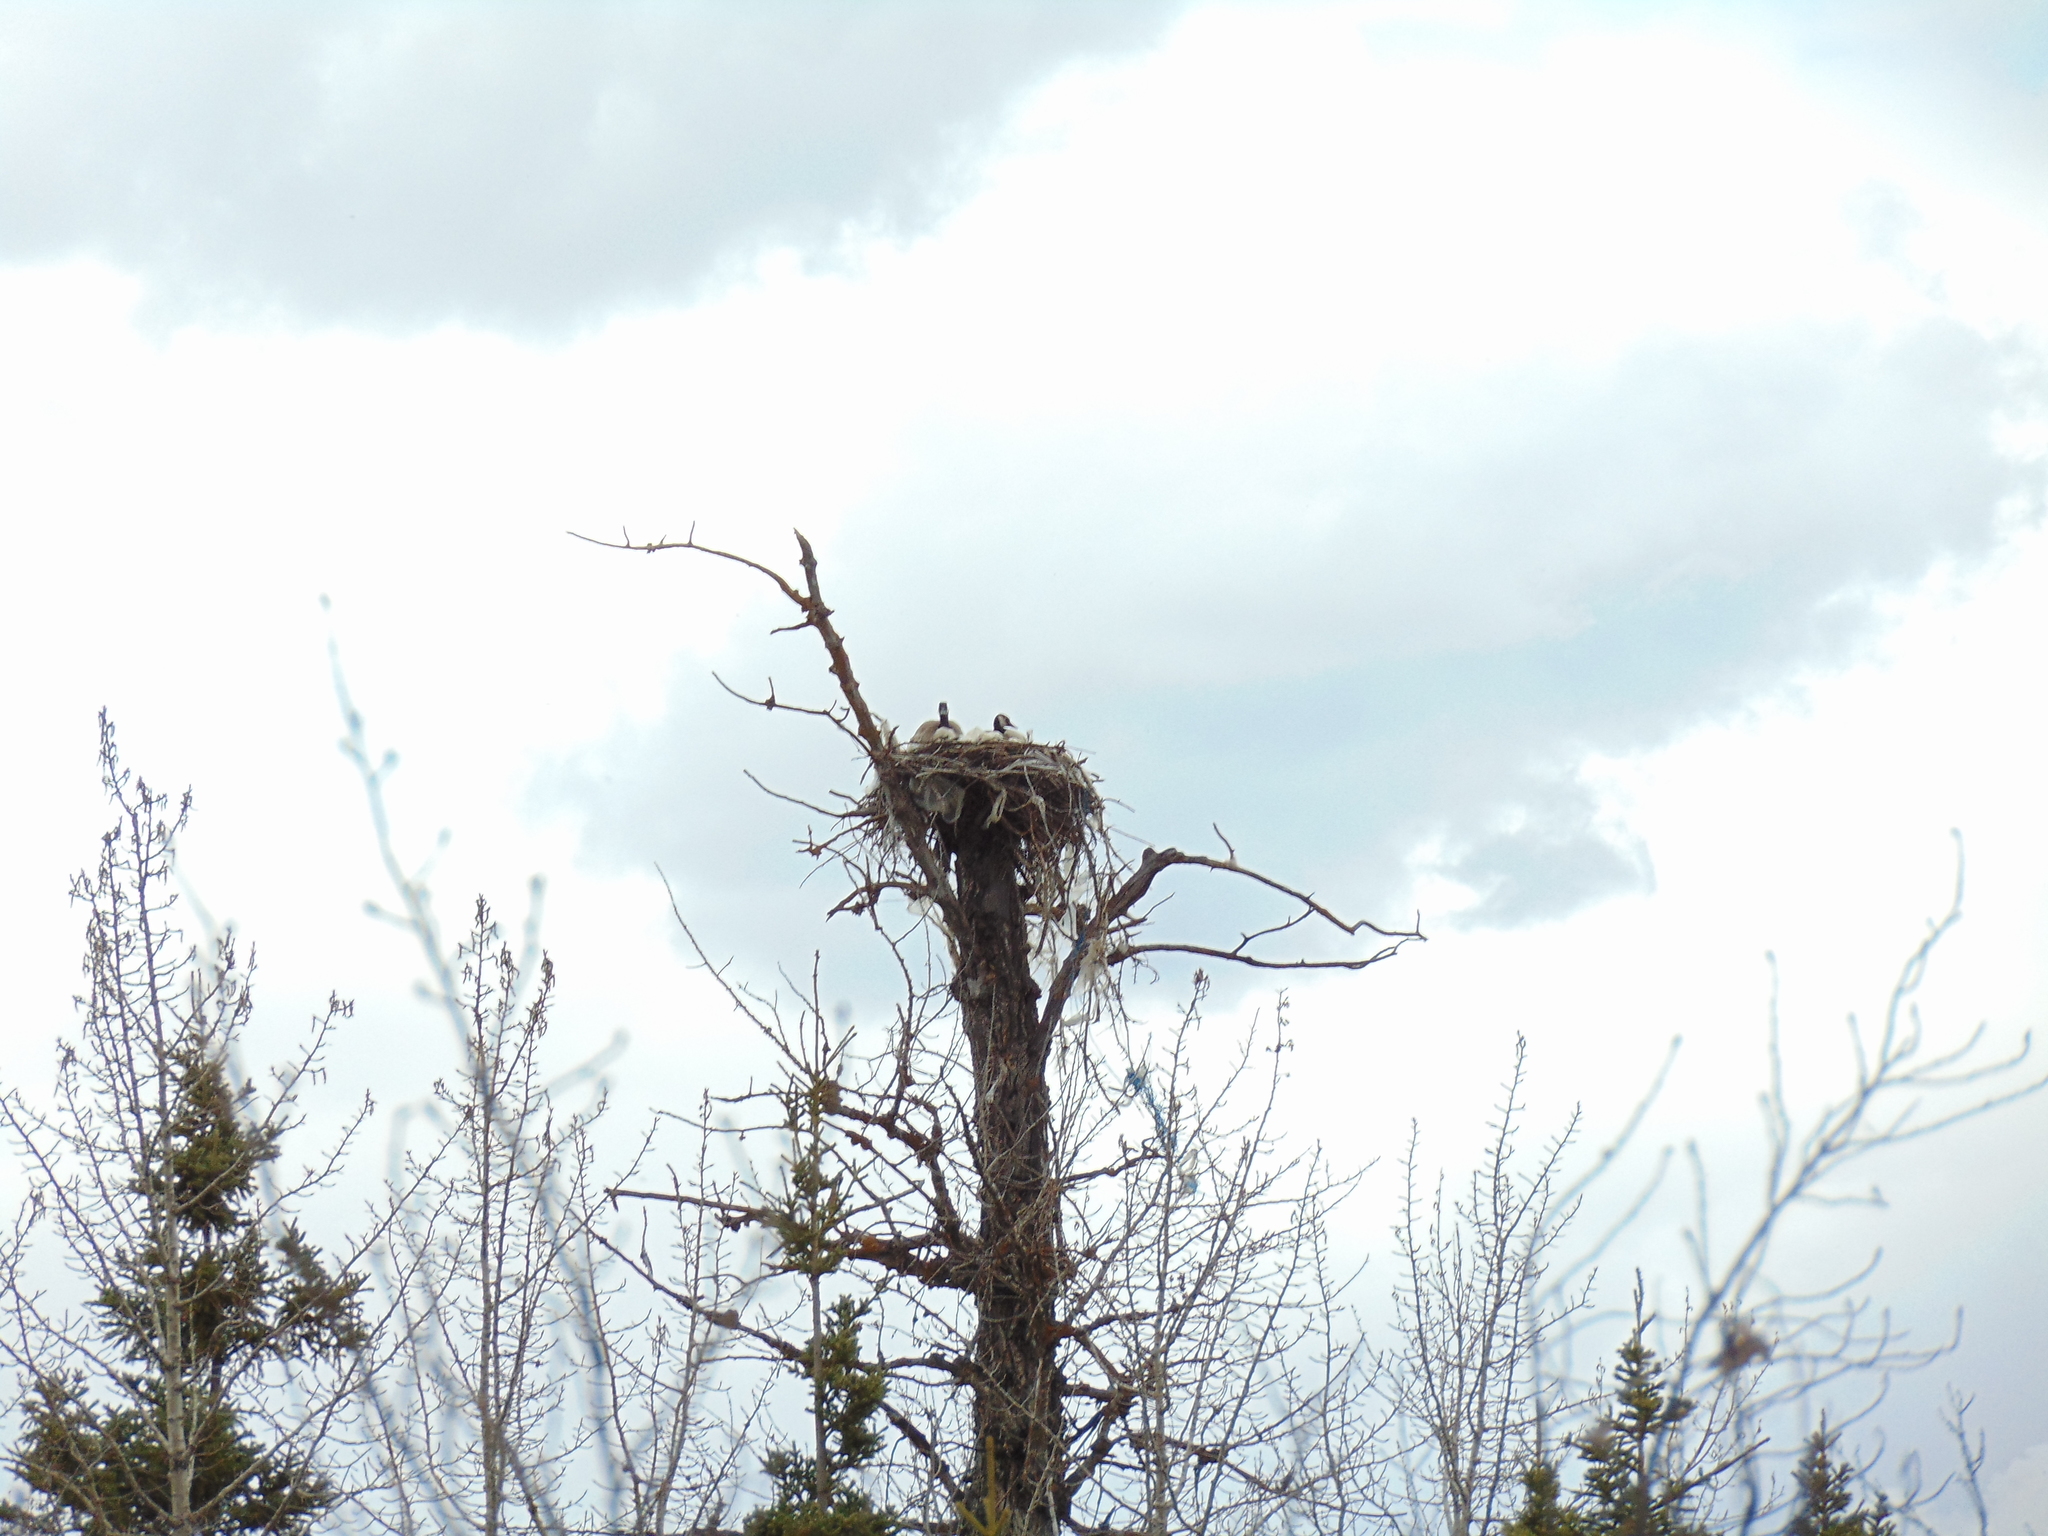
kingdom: Animalia
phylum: Chordata
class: Aves
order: Anseriformes
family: Anatidae
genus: Branta
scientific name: Branta canadensis
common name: Canada goose
